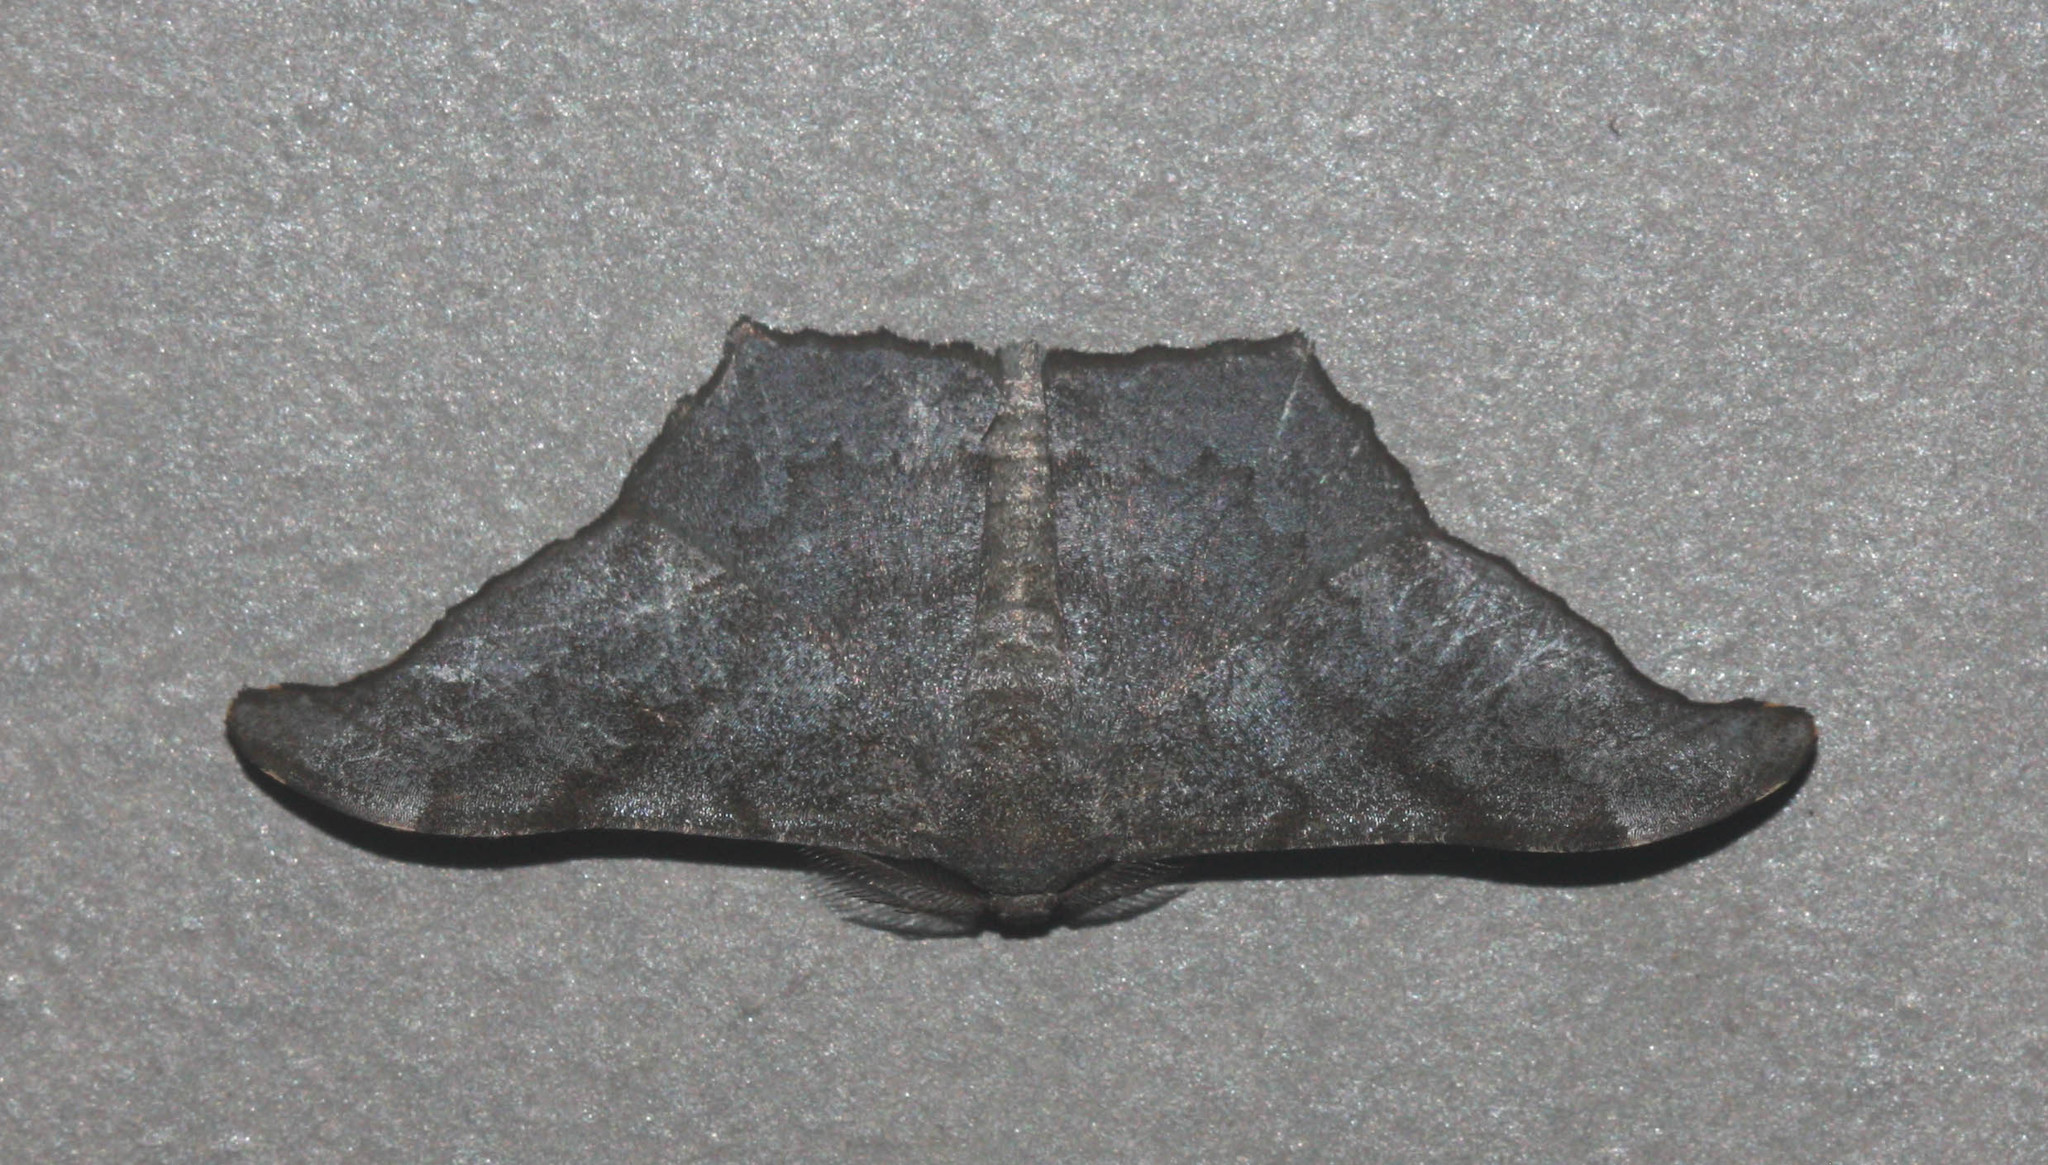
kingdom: Animalia
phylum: Arthropoda
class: Insecta
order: Lepidoptera
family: Geometridae
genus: Hyposidra
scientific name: Hyposidra talaca
